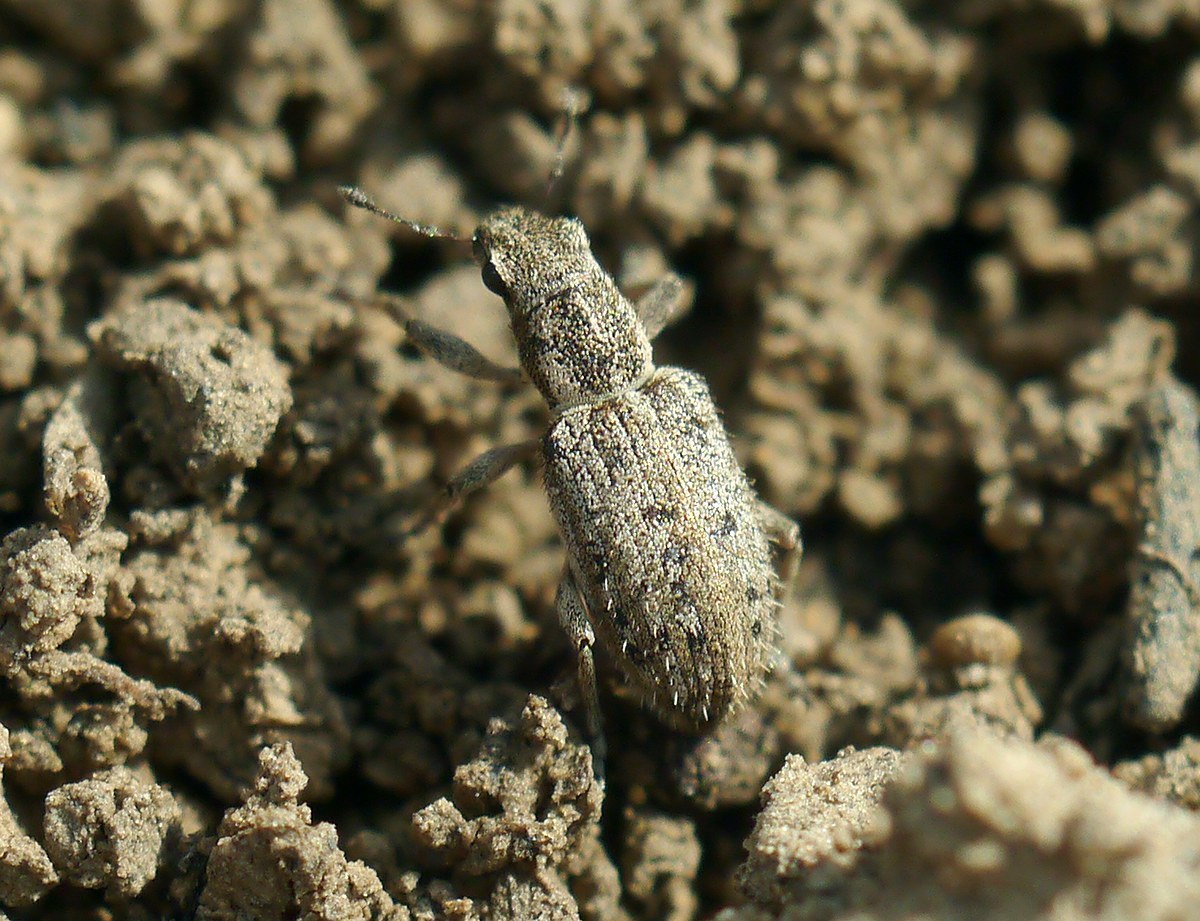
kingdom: Animalia
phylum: Arthropoda
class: Insecta
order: Coleoptera
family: Curculionidae
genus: Sitona
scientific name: Sitona macularius
